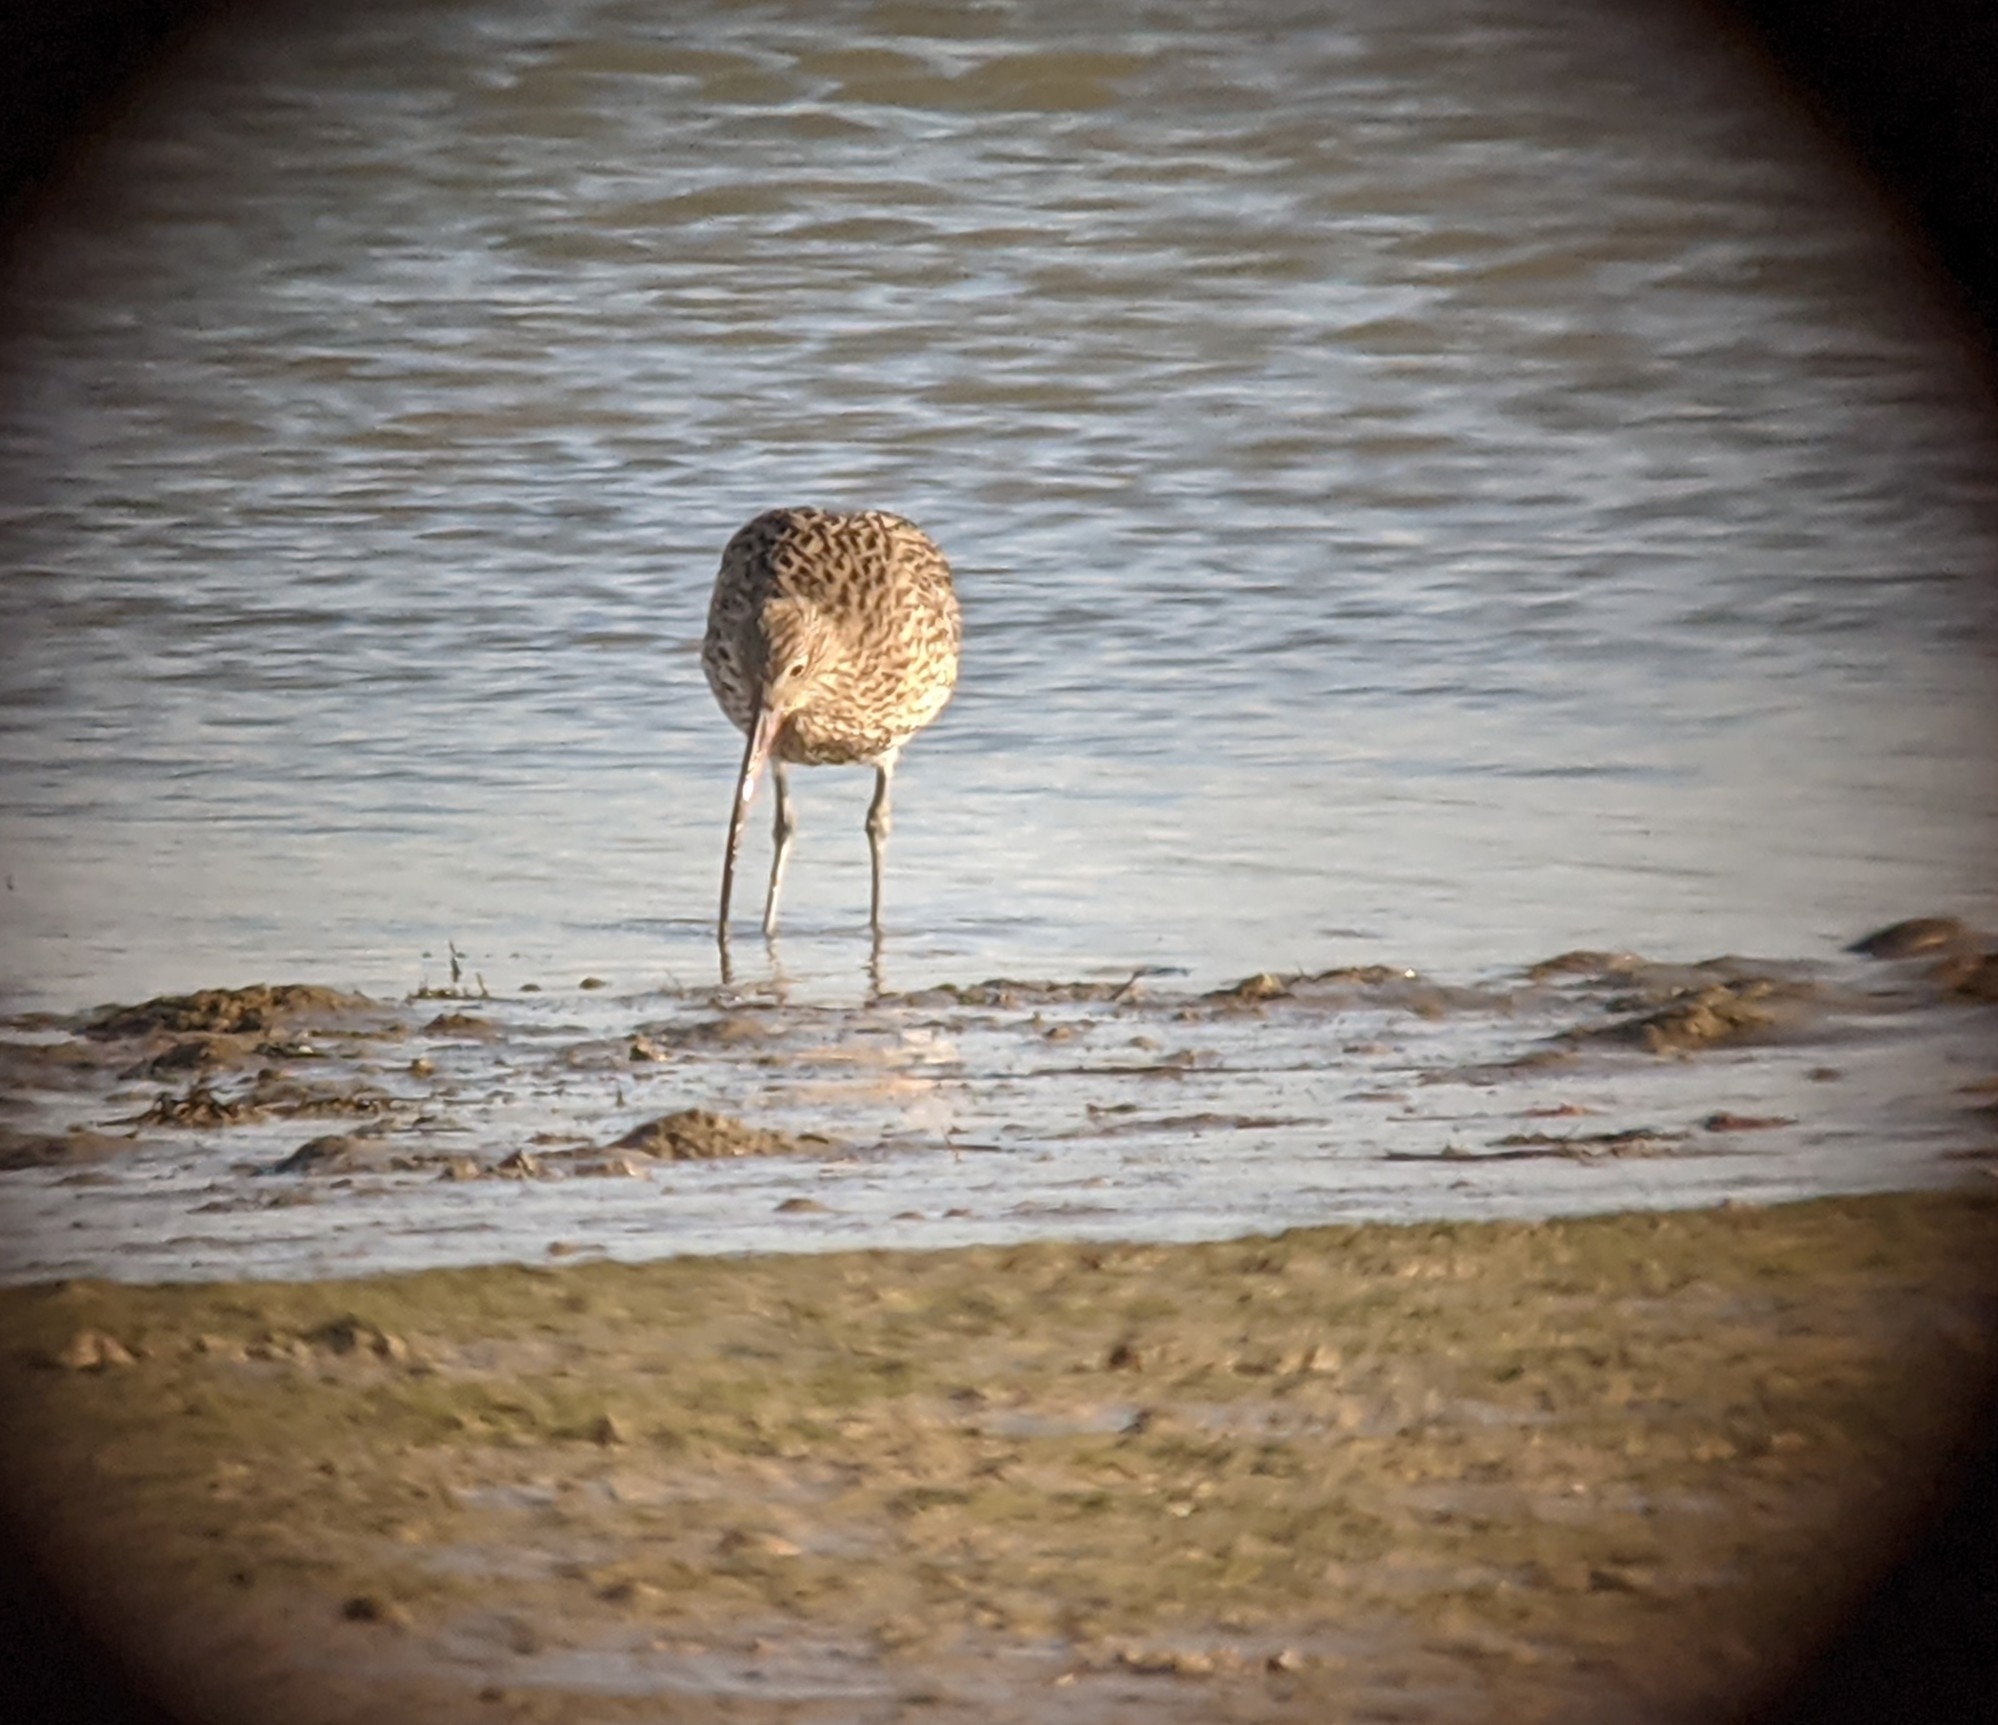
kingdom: Animalia
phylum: Chordata
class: Aves
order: Charadriiformes
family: Scolopacidae
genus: Numenius
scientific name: Numenius arquata
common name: Eurasian curlew
